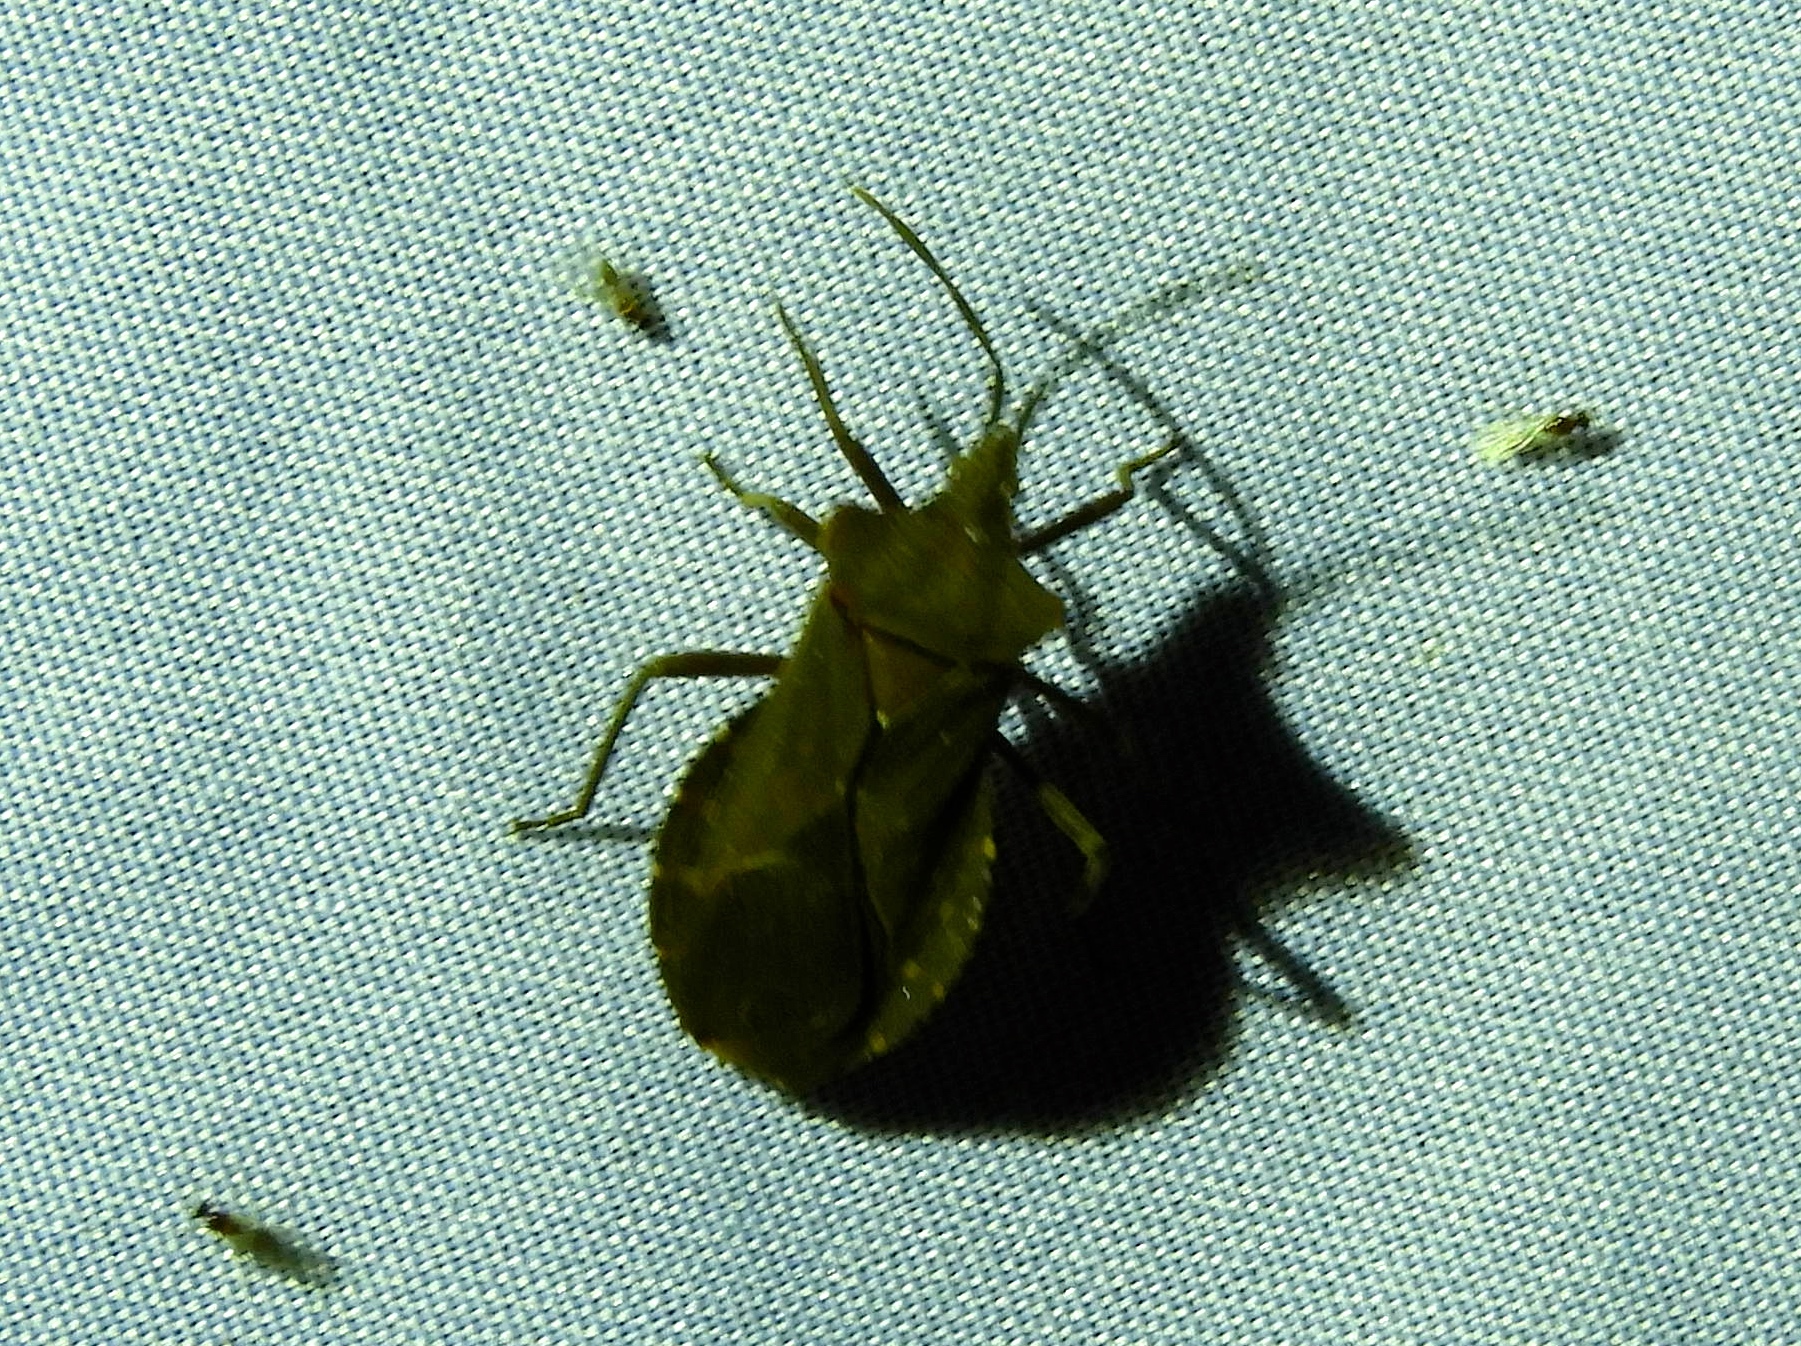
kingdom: Animalia
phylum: Arthropoda
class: Insecta
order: Hemiptera
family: Coreidae
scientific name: Coreidae
